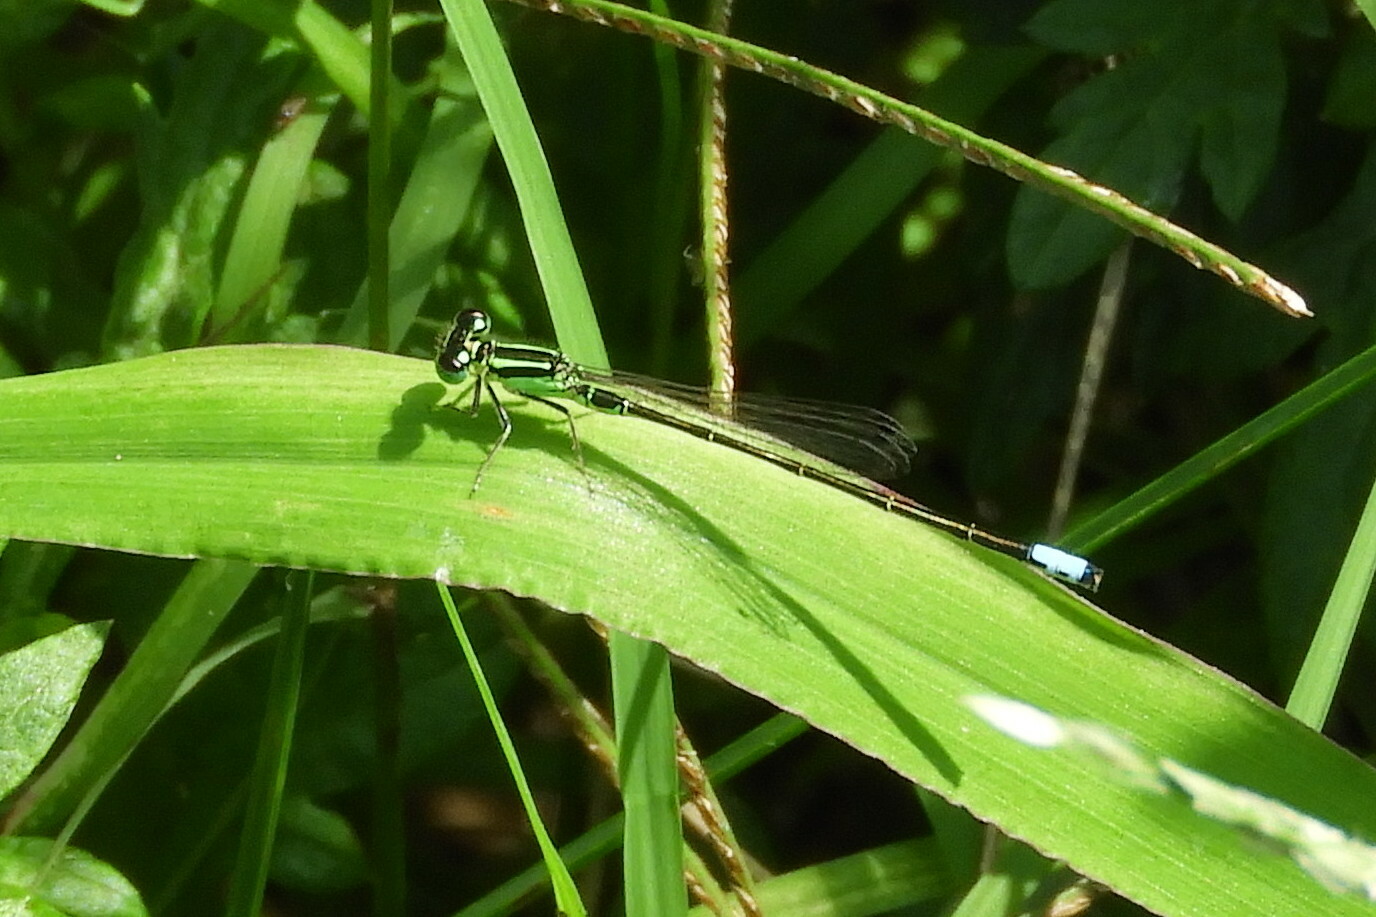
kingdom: Animalia
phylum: Arthropoda
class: Insecta
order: Odonata
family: Coenagrionidae
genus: Ischnura
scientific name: Ischnura verticalis
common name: Eastern forktail
